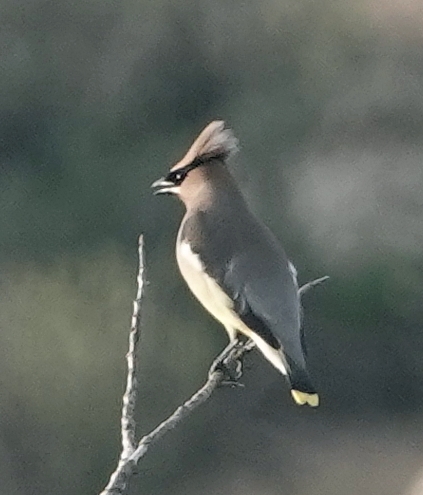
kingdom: Animalia
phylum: Chordata
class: Aves
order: Passeriformes
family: Bombycillidae
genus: Bombycilla
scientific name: Bombycilla cedrorum
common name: Cedar waxwing
